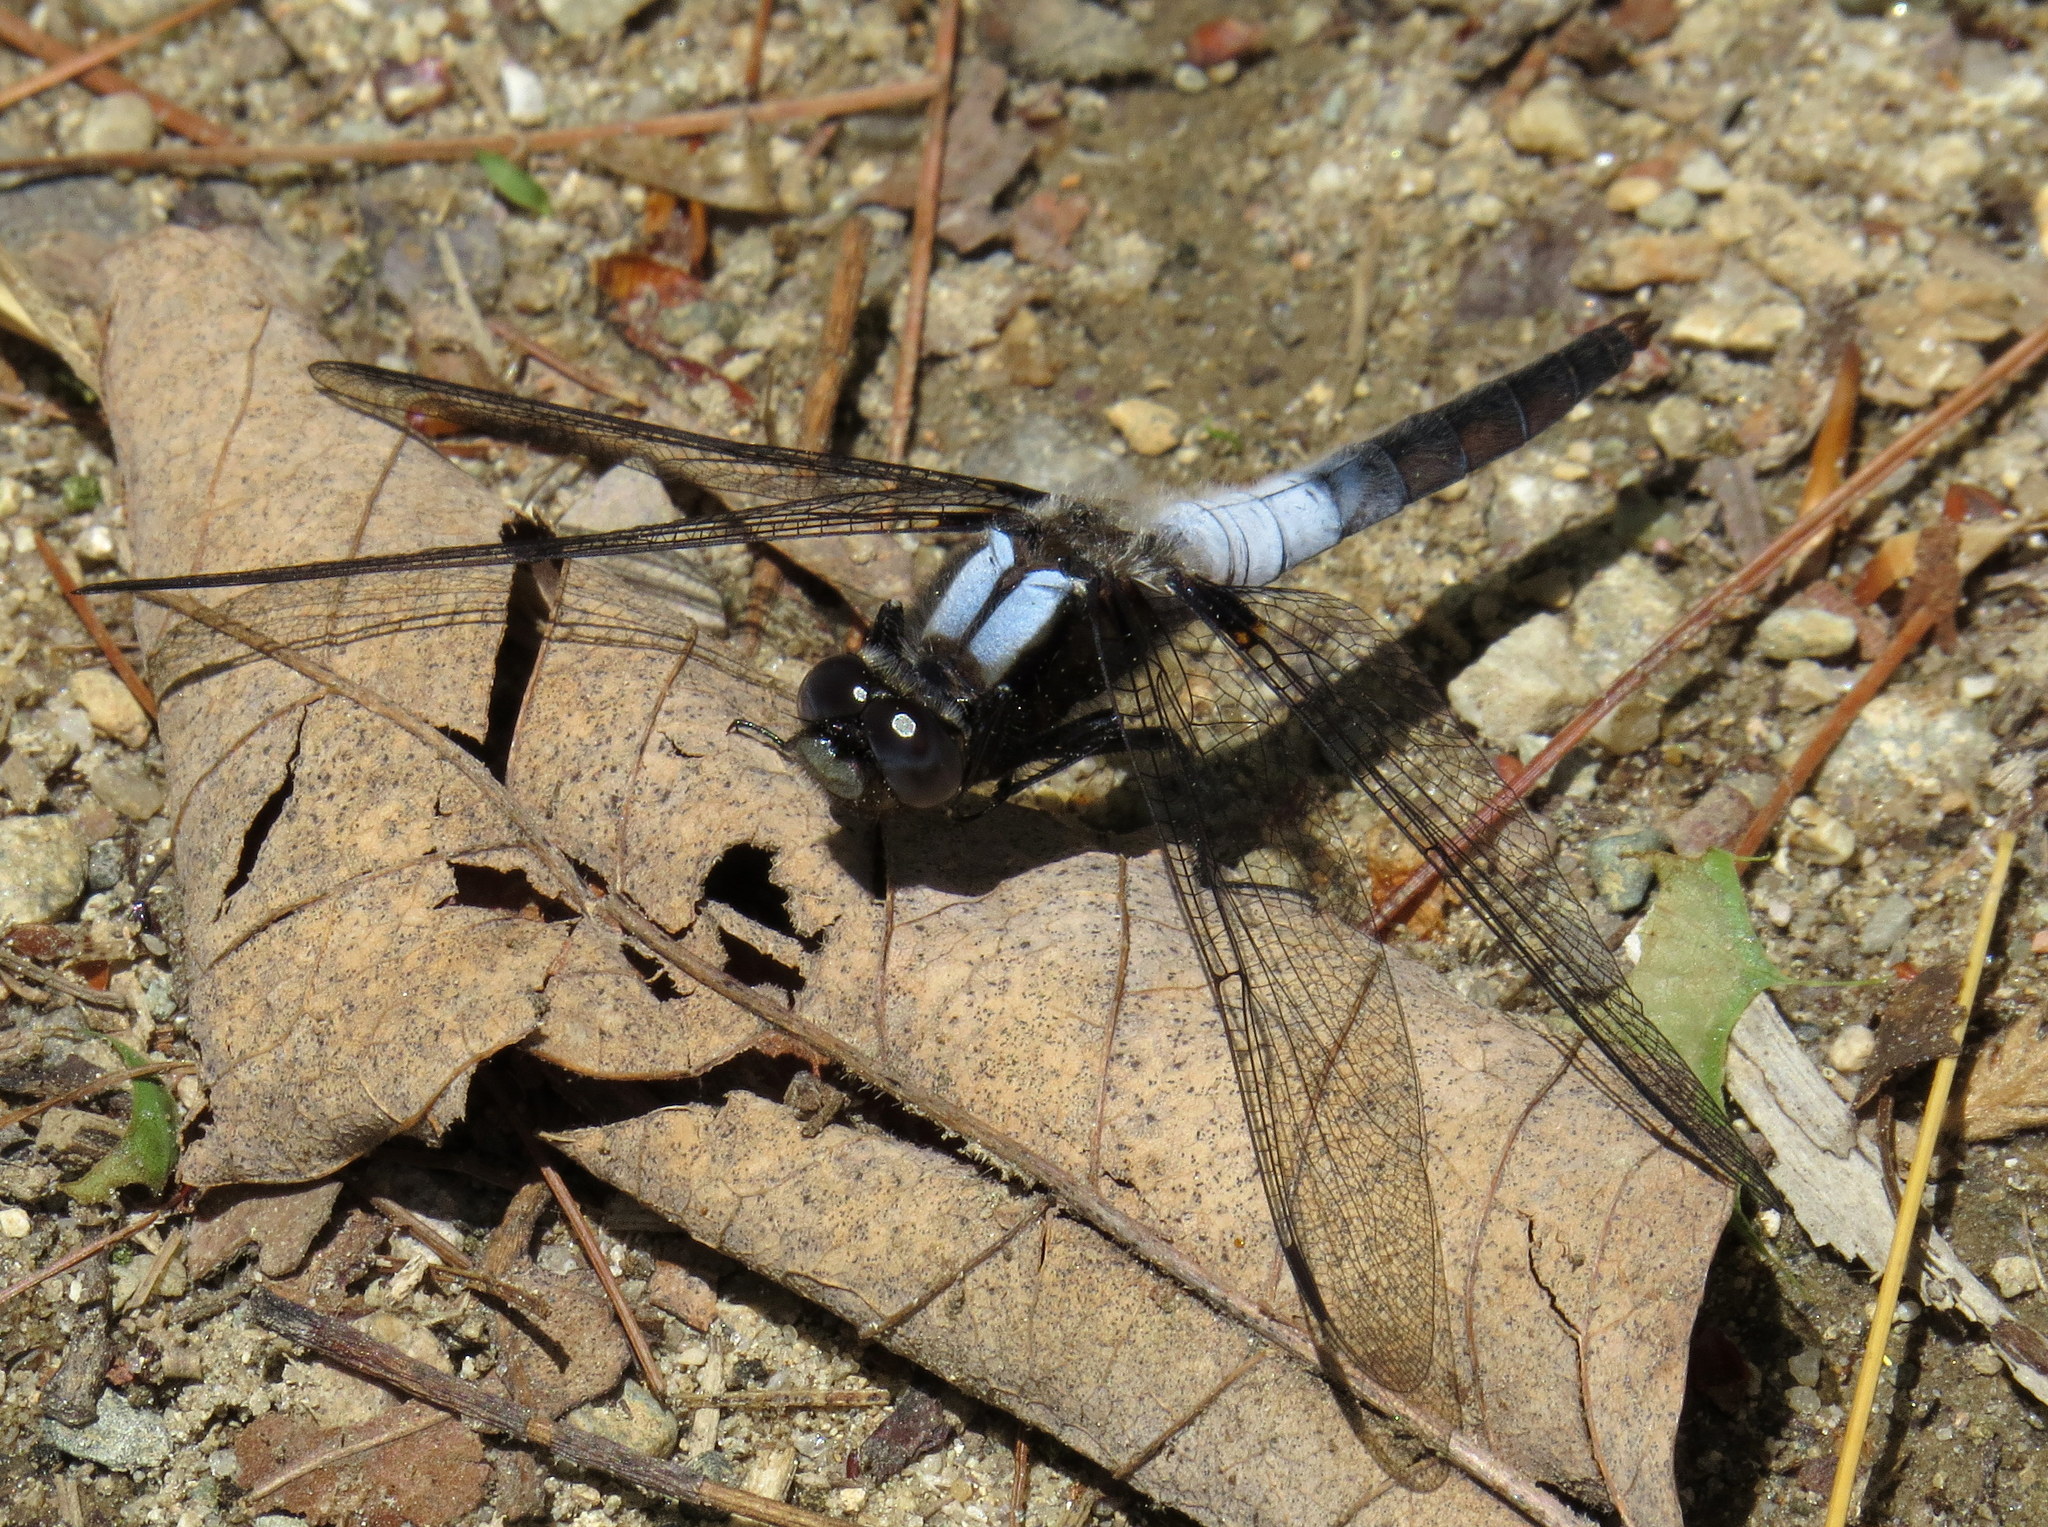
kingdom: Animalia
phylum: Arthropoda
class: Insecta
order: Odonata
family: Libellulidae
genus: Ladona
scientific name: Ladona julia
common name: Chalk-fronted corporal
